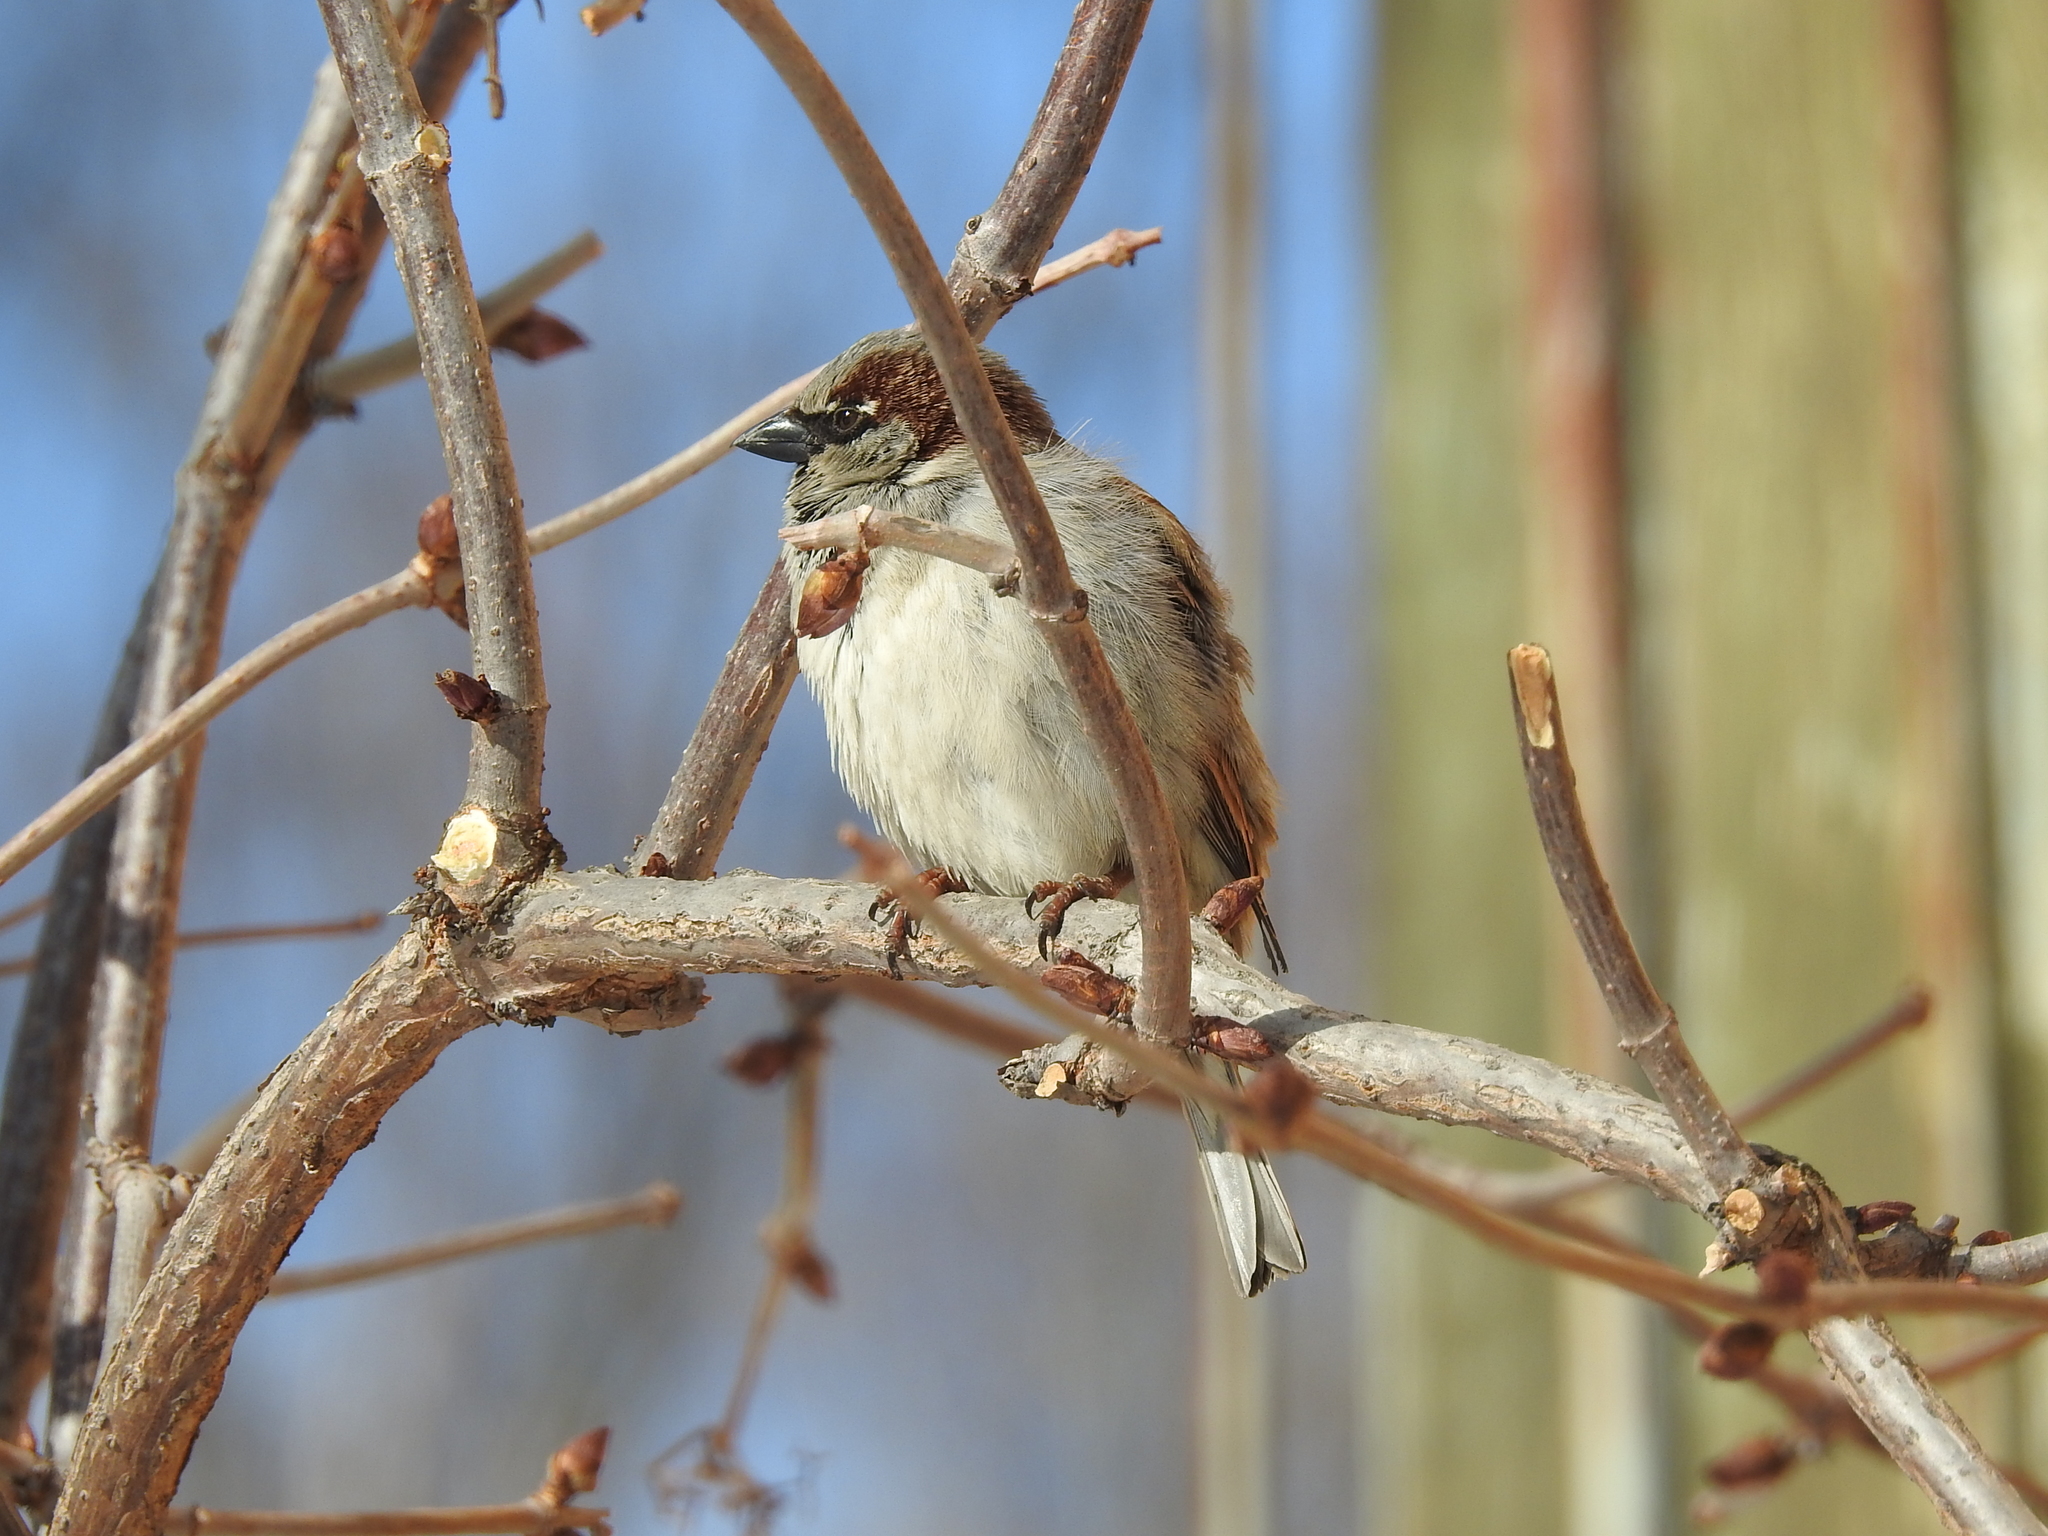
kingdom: Animalia
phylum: Chordata
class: Aves
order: Passeriformes
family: Passeridae
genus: Passer
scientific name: Passer domesticus
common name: House sparrow
